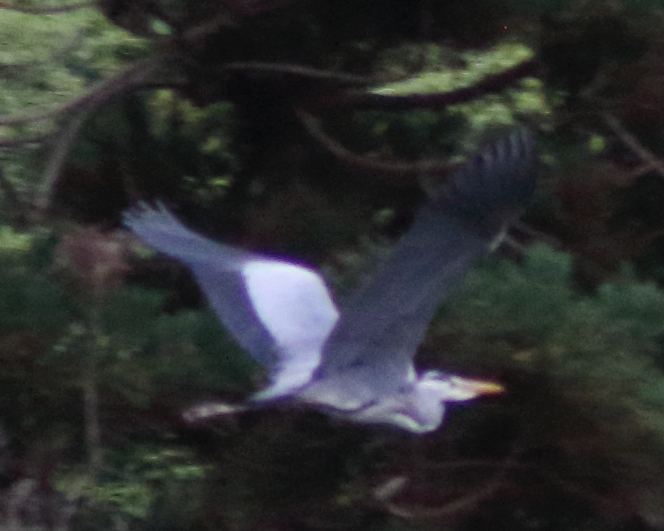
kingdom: Animalia
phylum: Chordata
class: Aves
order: Pelecaniformes
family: Ardeidae
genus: Ardea
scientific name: Ardea cinerea
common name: Grey heron
